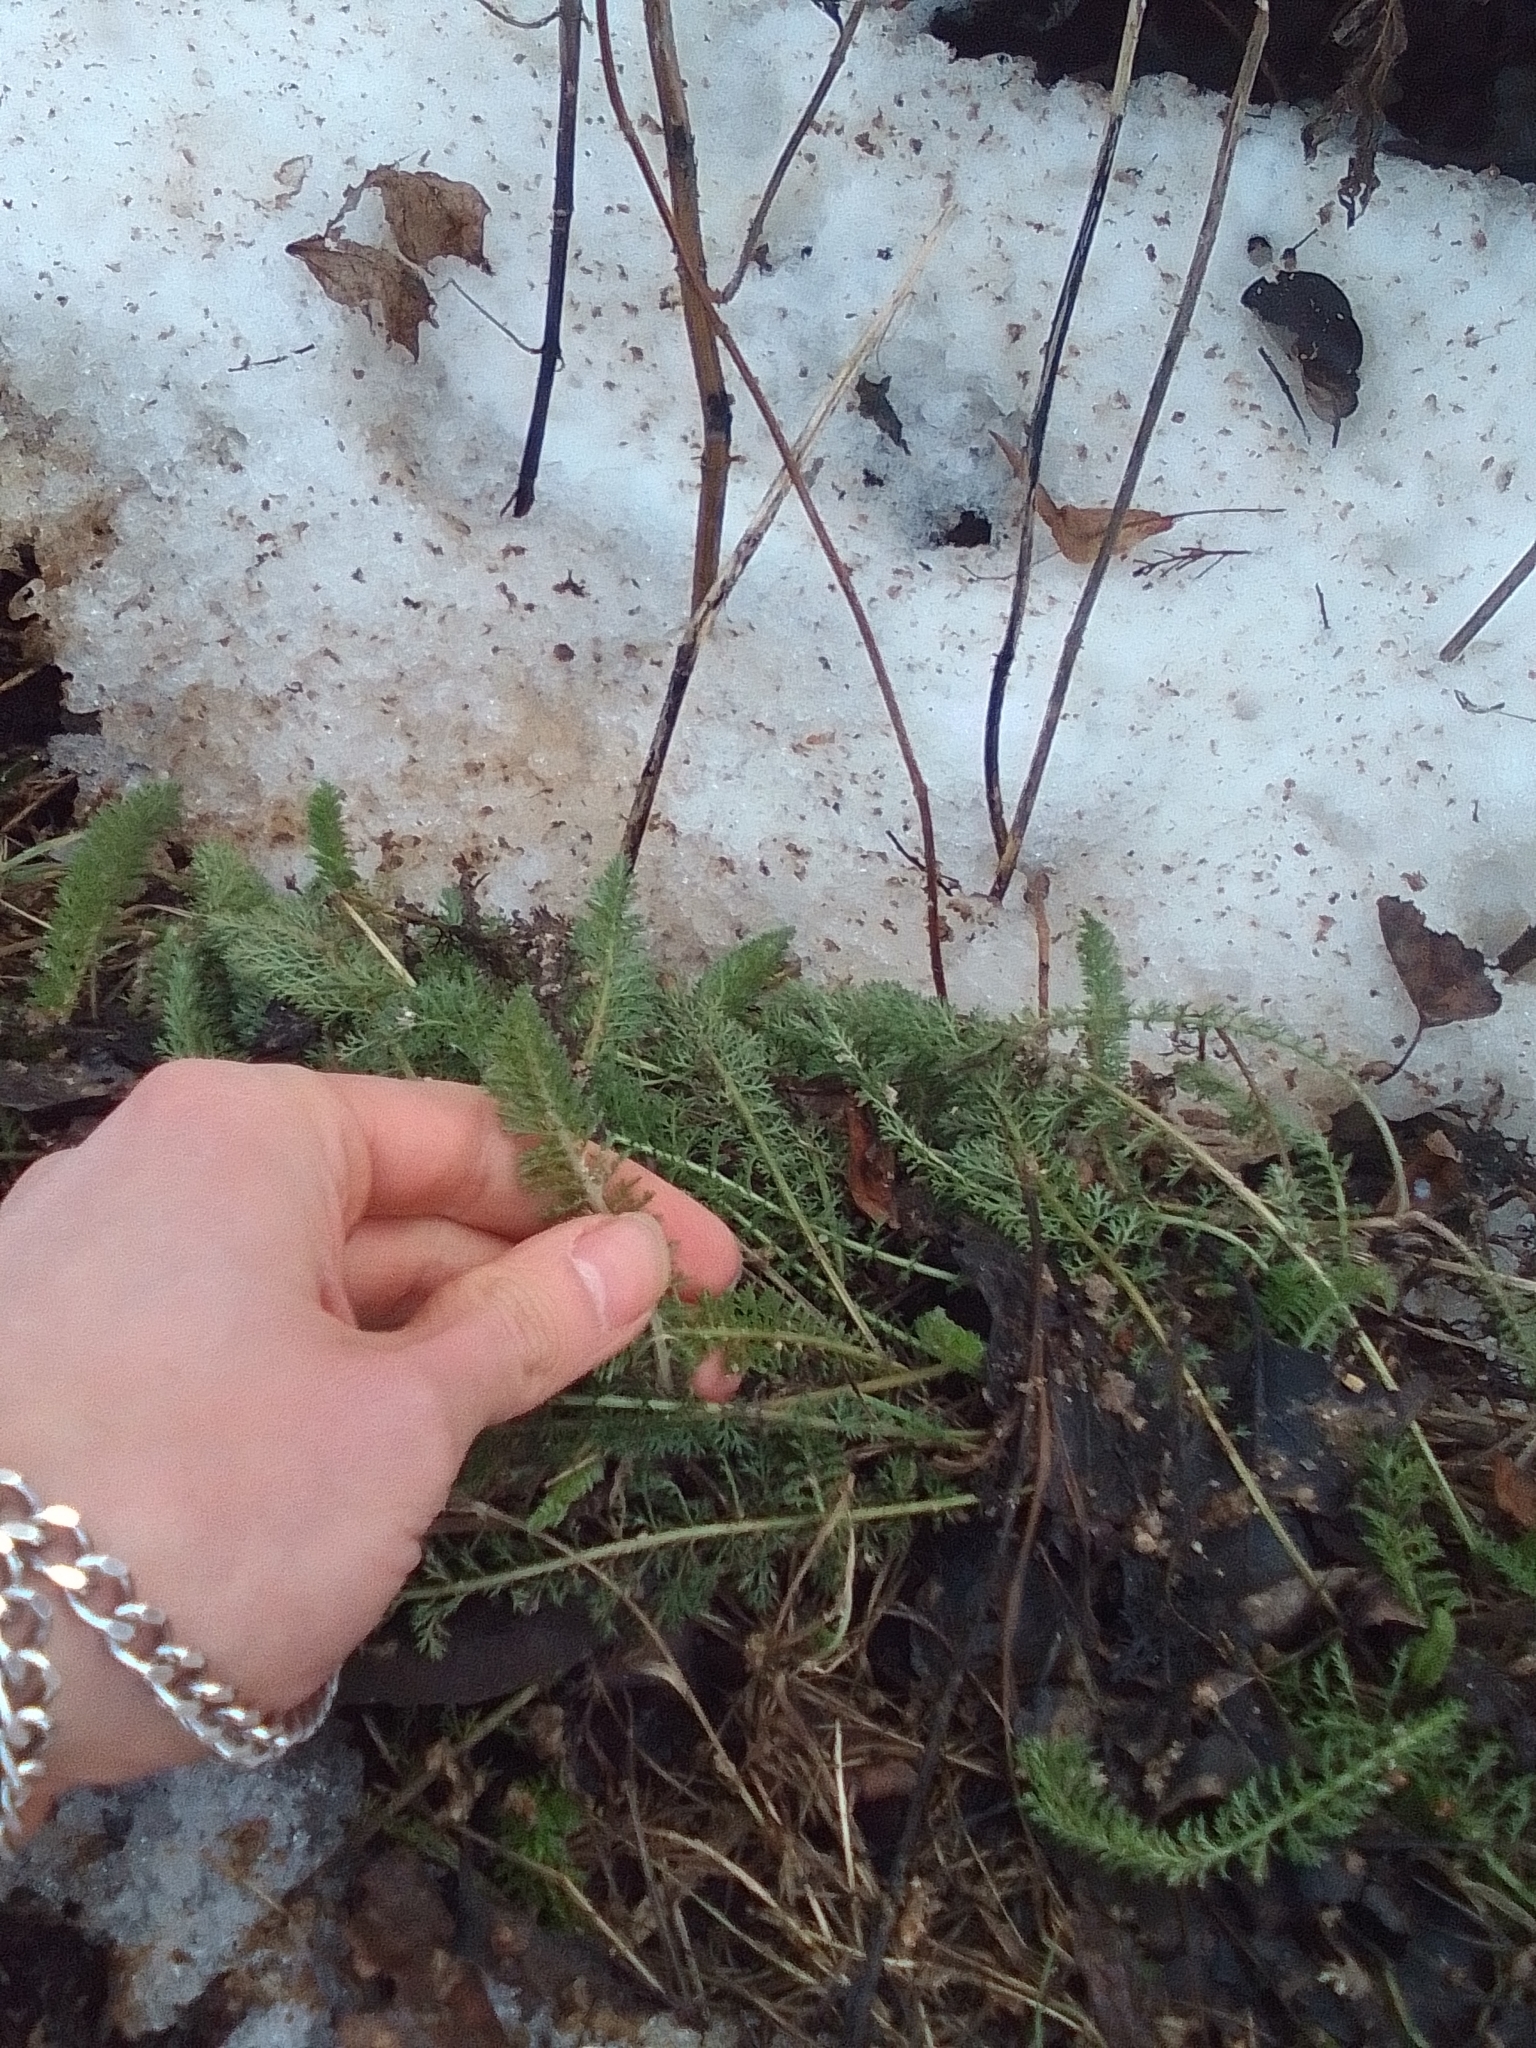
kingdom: Plantae
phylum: Tracheophyta
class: Magnoliopsida
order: Asterales
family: Asteraceae
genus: Achillea
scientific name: Achillea millefolium
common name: Yarrow
